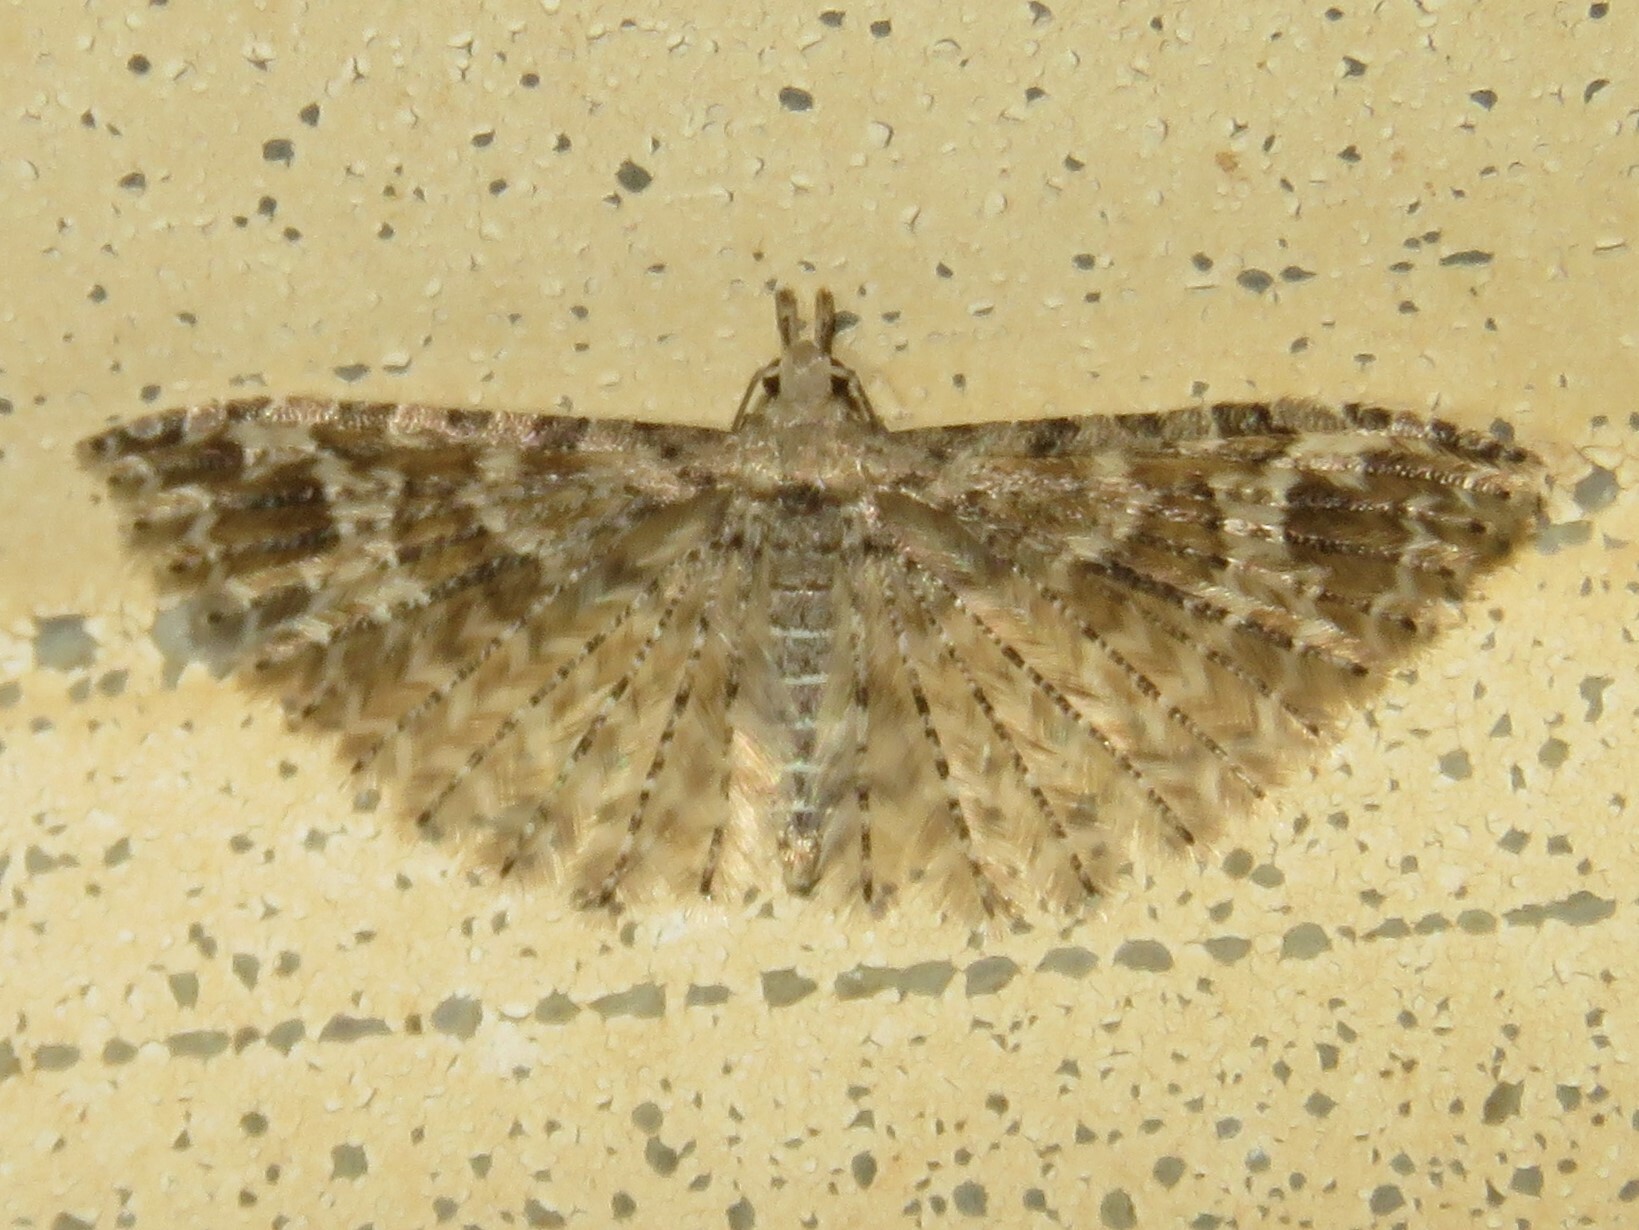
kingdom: Animalia
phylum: Arthropoda
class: Insecta
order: Lepidoptera
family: Alucitidae
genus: Alucita
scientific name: Alucita
